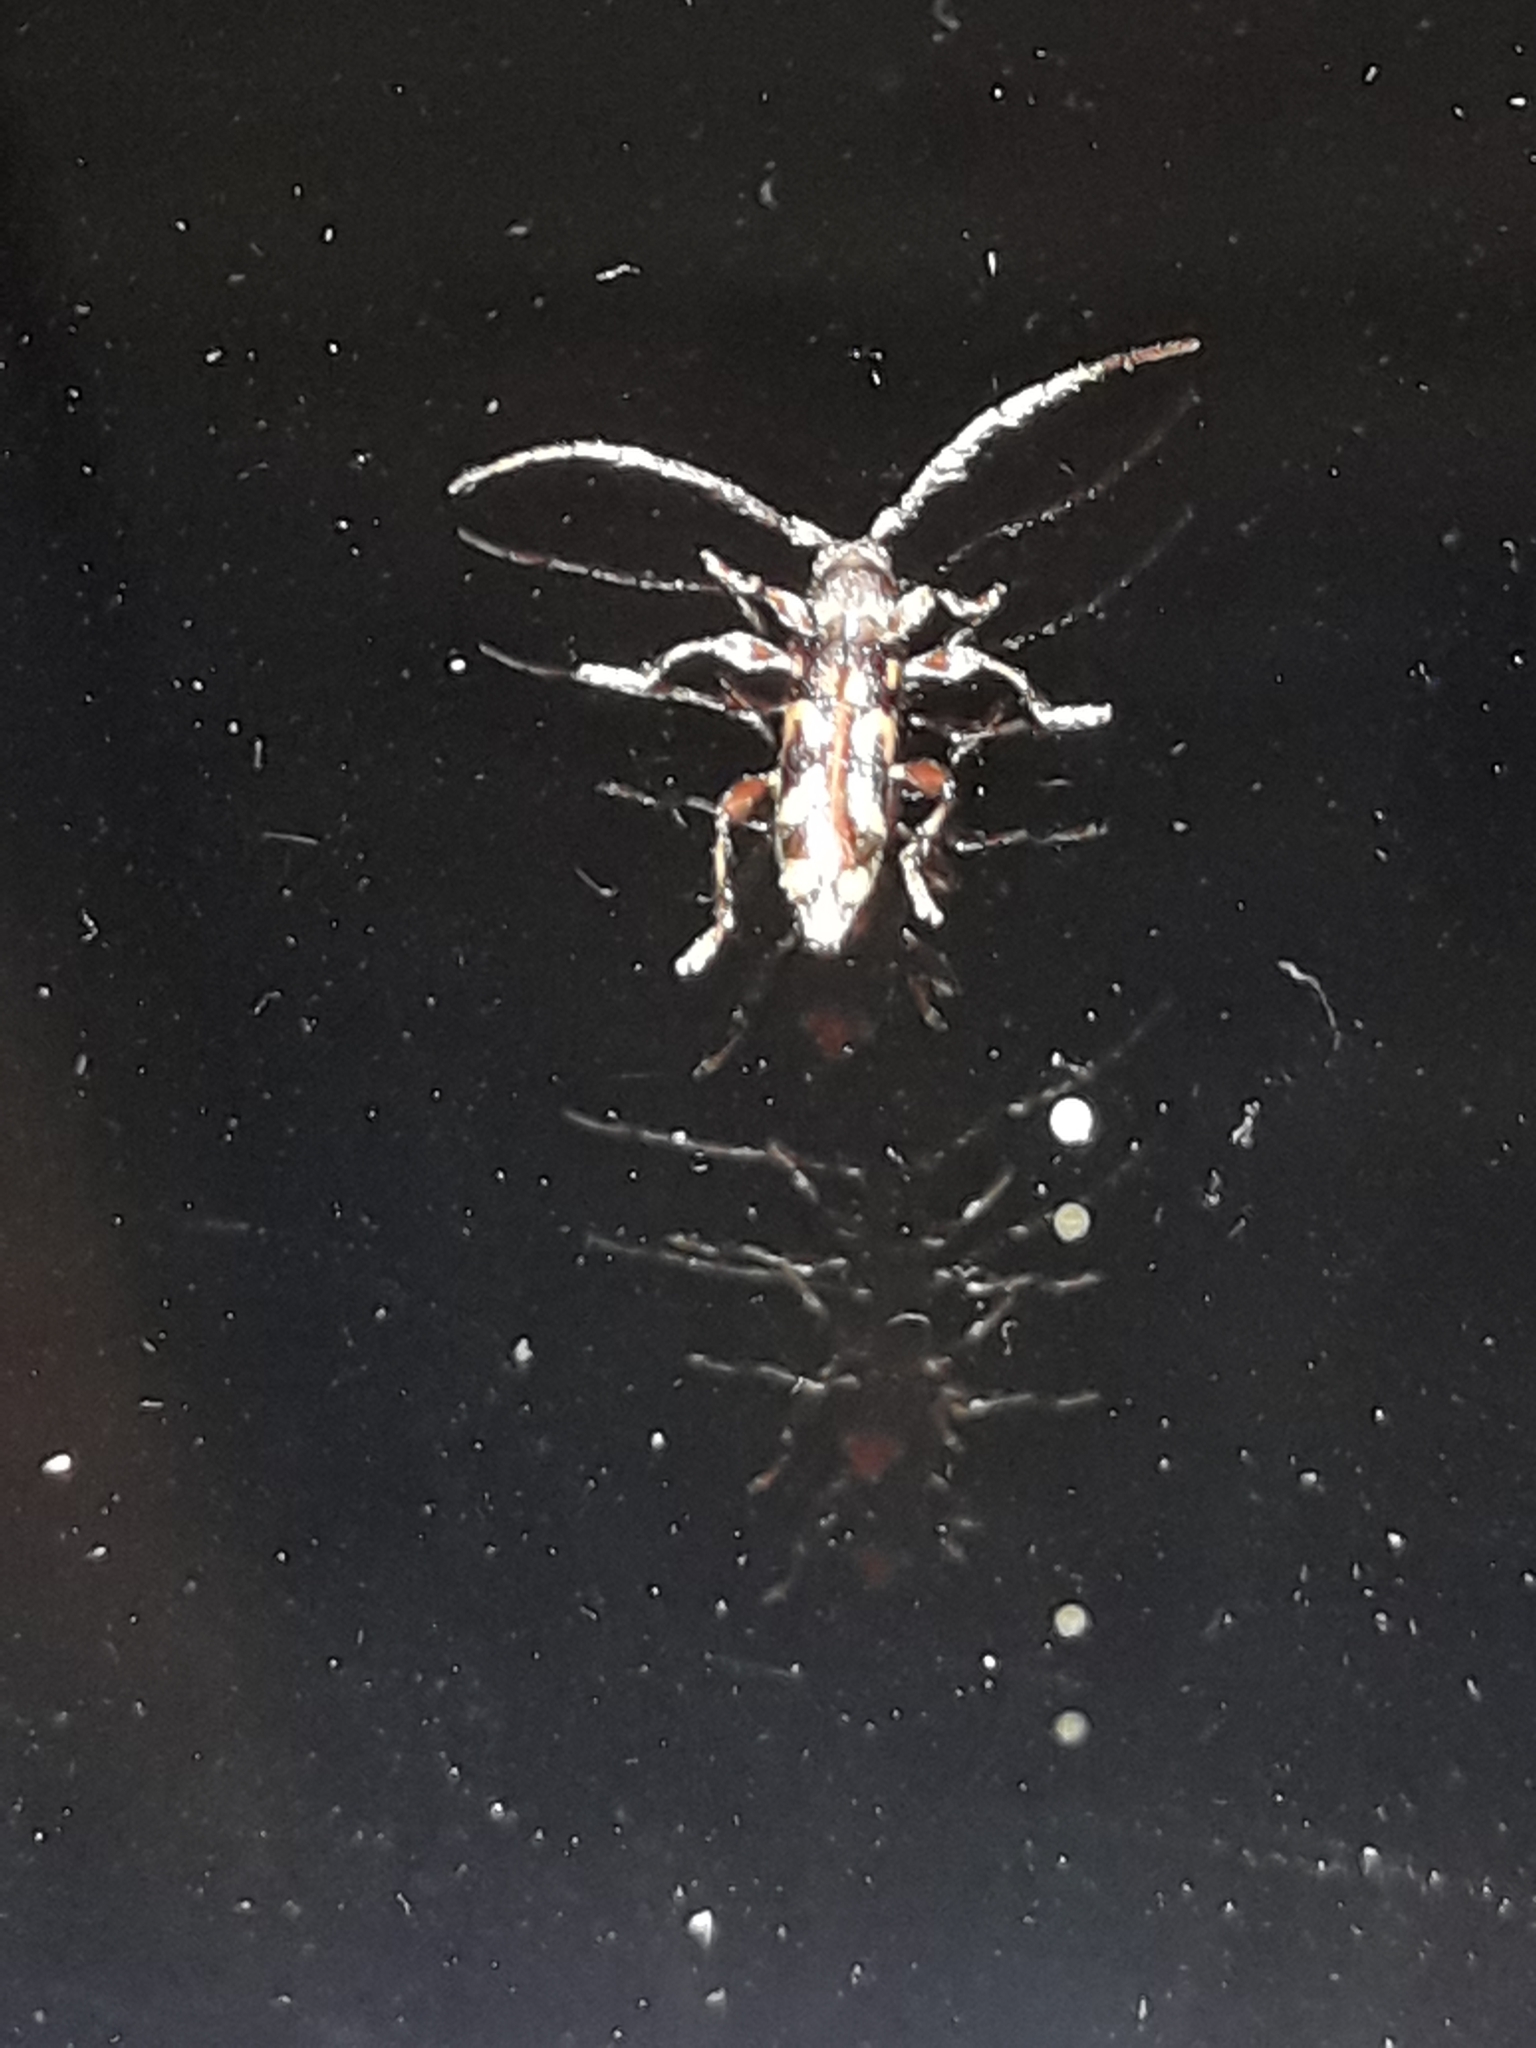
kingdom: Animalia
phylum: Arthropoda
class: Insecta
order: Coleoptera
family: Cerambycidae
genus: Bethelium
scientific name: Bethelium signiferum
